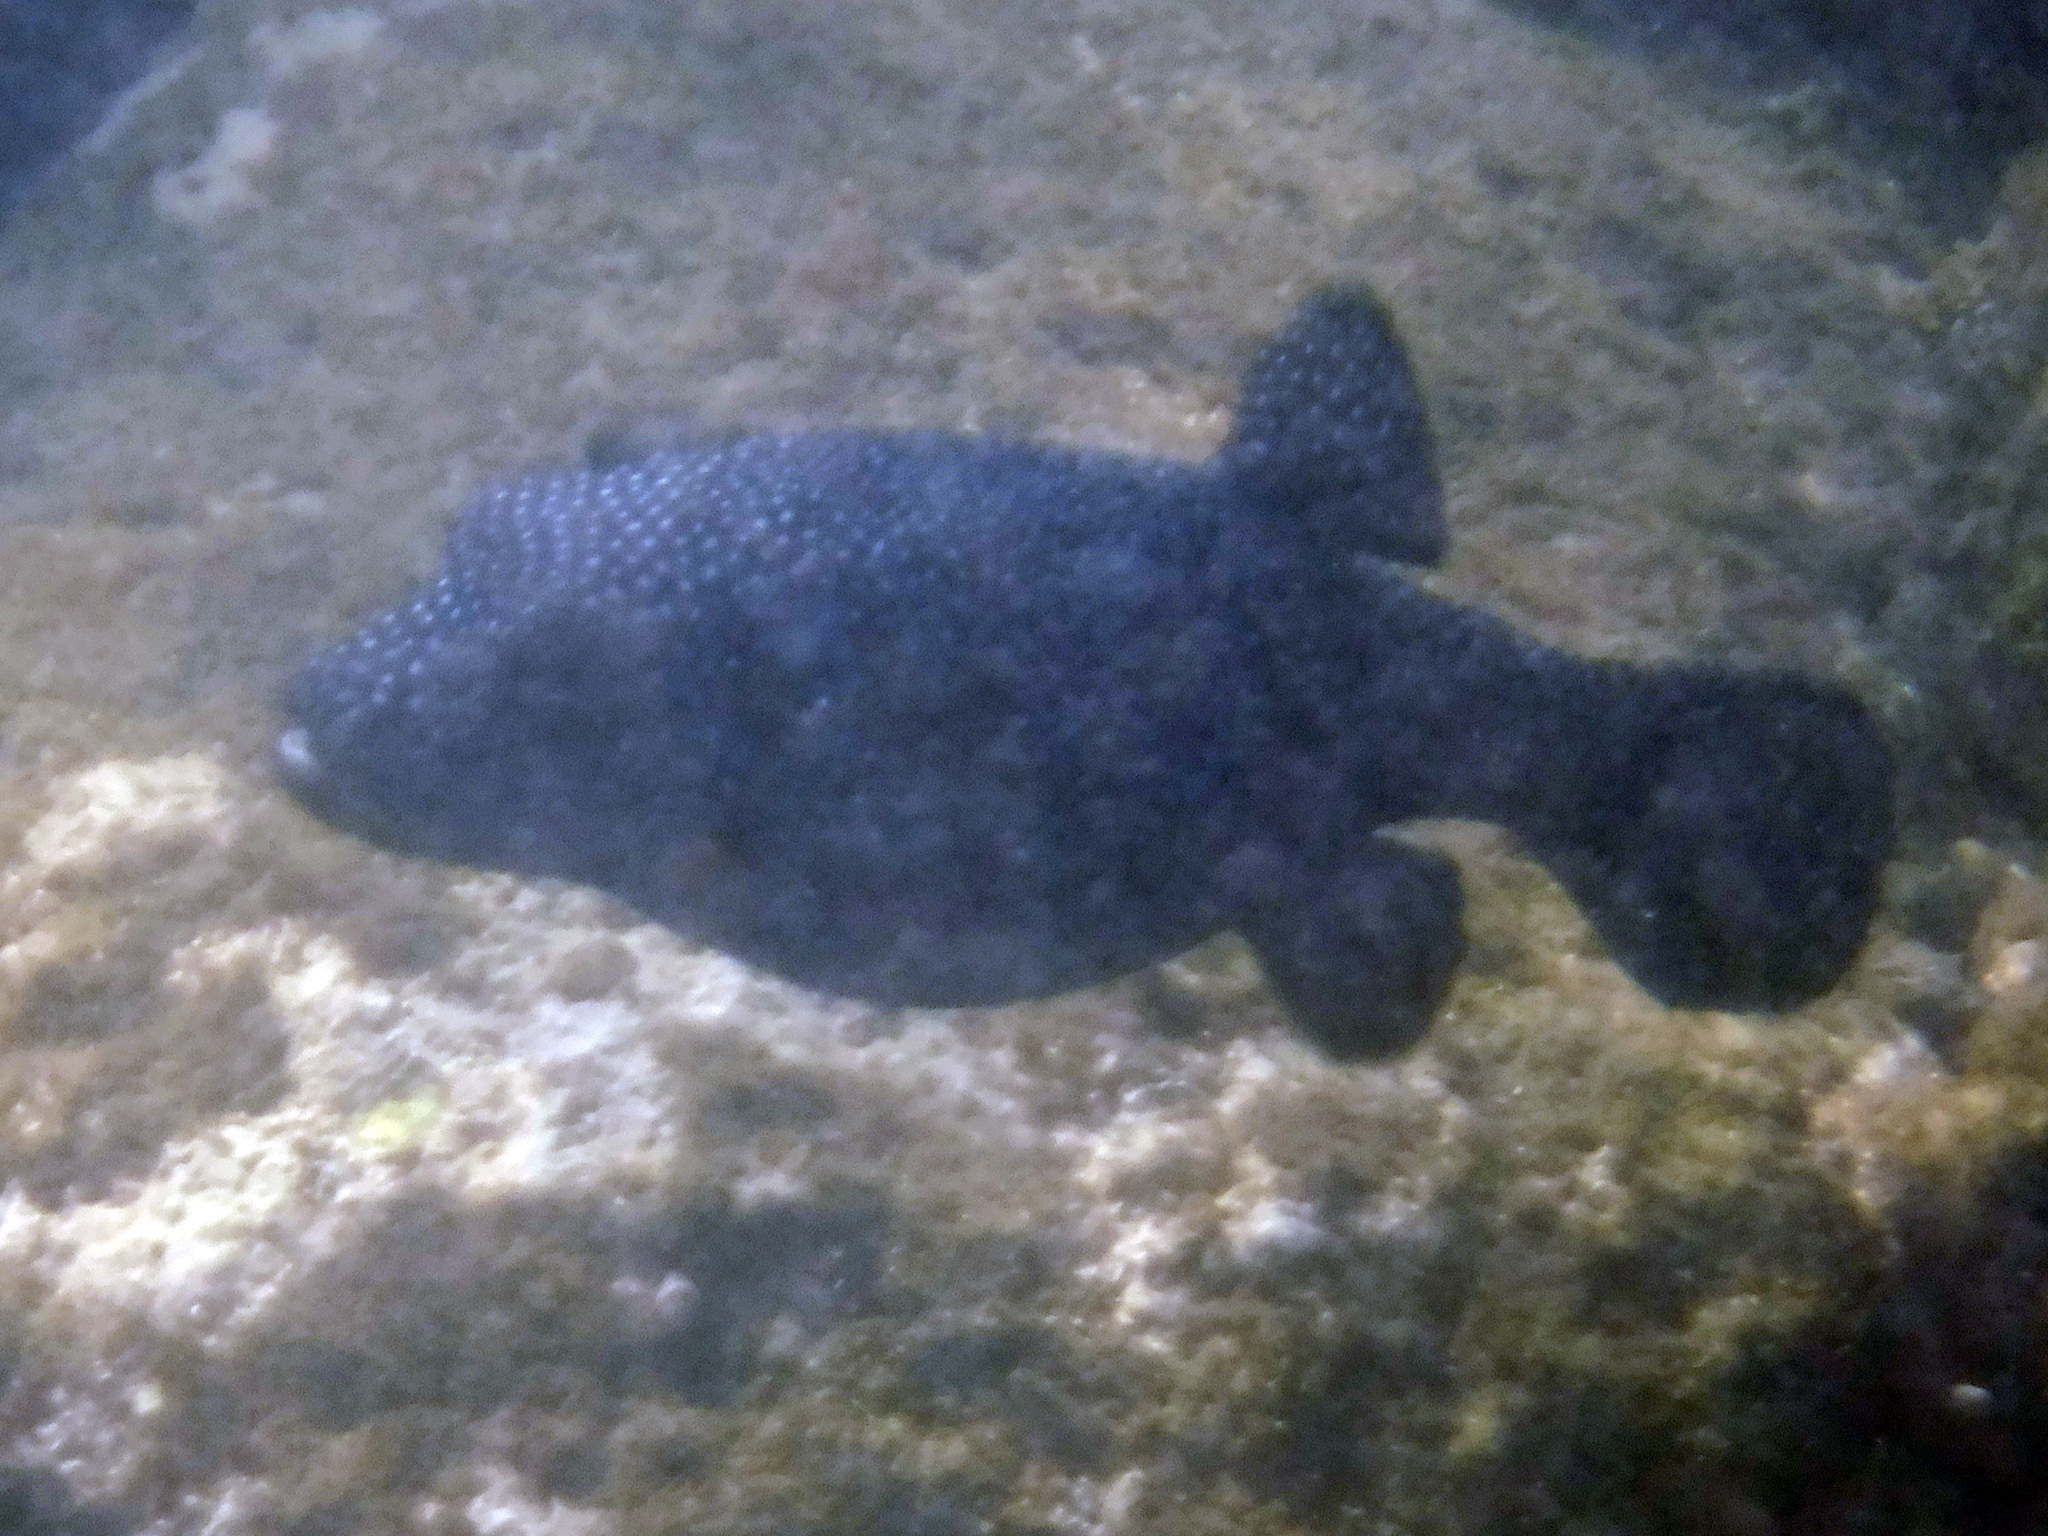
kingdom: Animalia
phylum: Chordata
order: Tetraodontiformes
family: Tetraodontidae
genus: Arothron
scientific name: Arothron meleagris
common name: Guinea-fowl pufferfish
